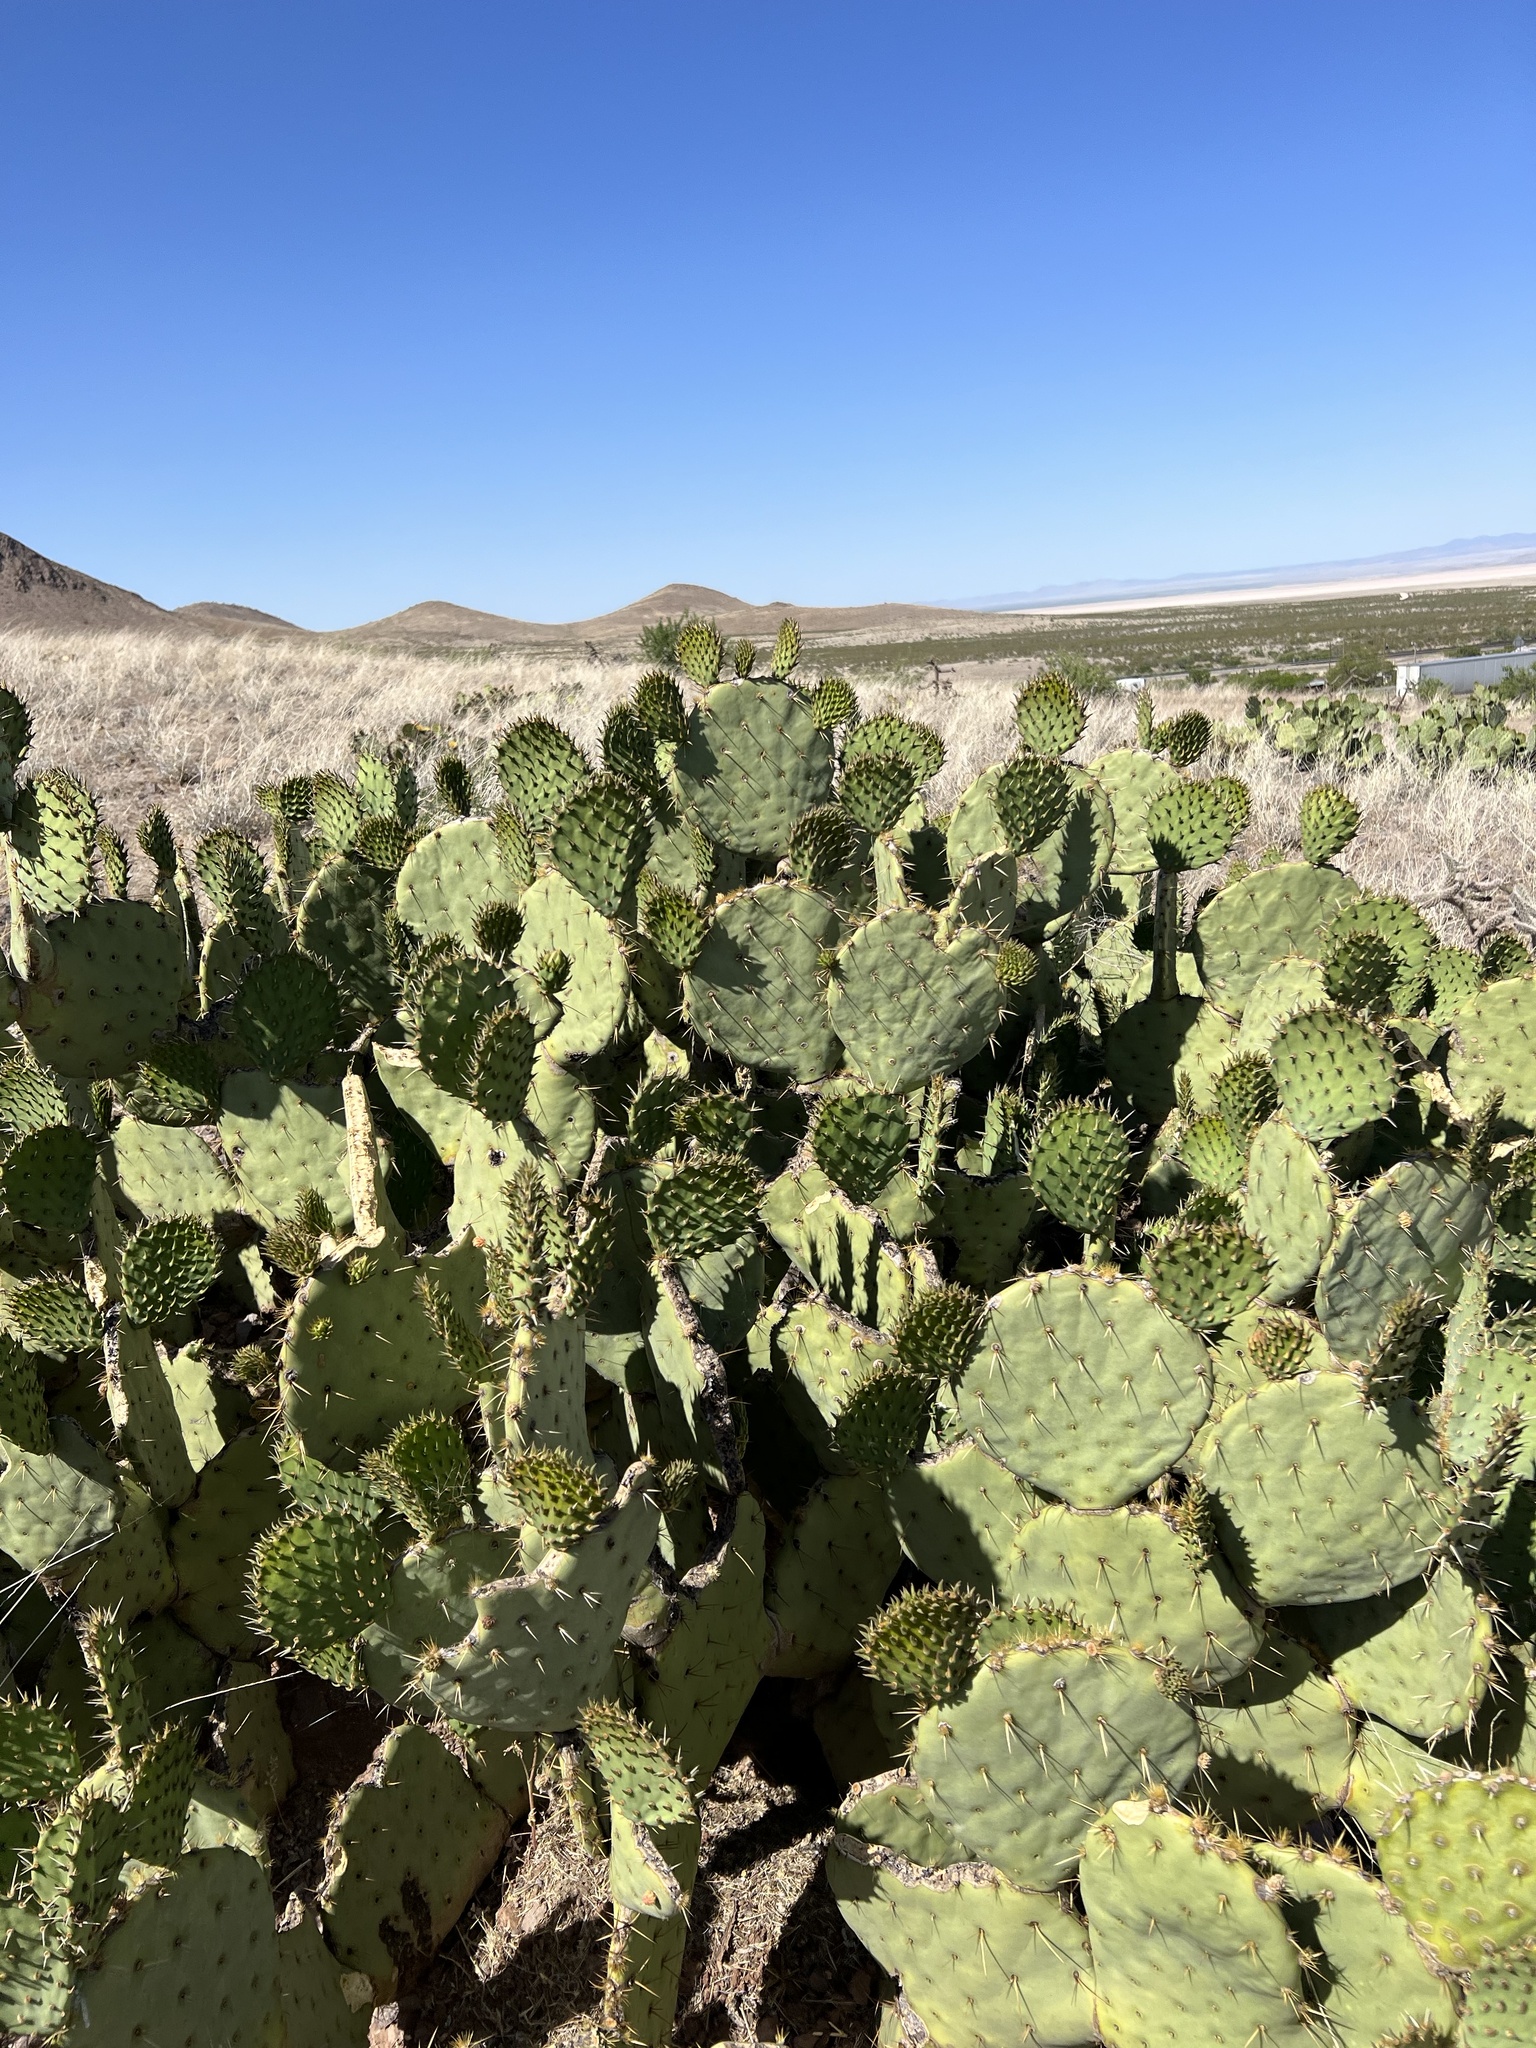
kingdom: Plantae
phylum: Tracheophyta
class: Magnoliopsida
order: Caryophyllales
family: Cactaceae
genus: Opuntia
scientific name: Opuntia engelmannii
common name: Cactus-apple
